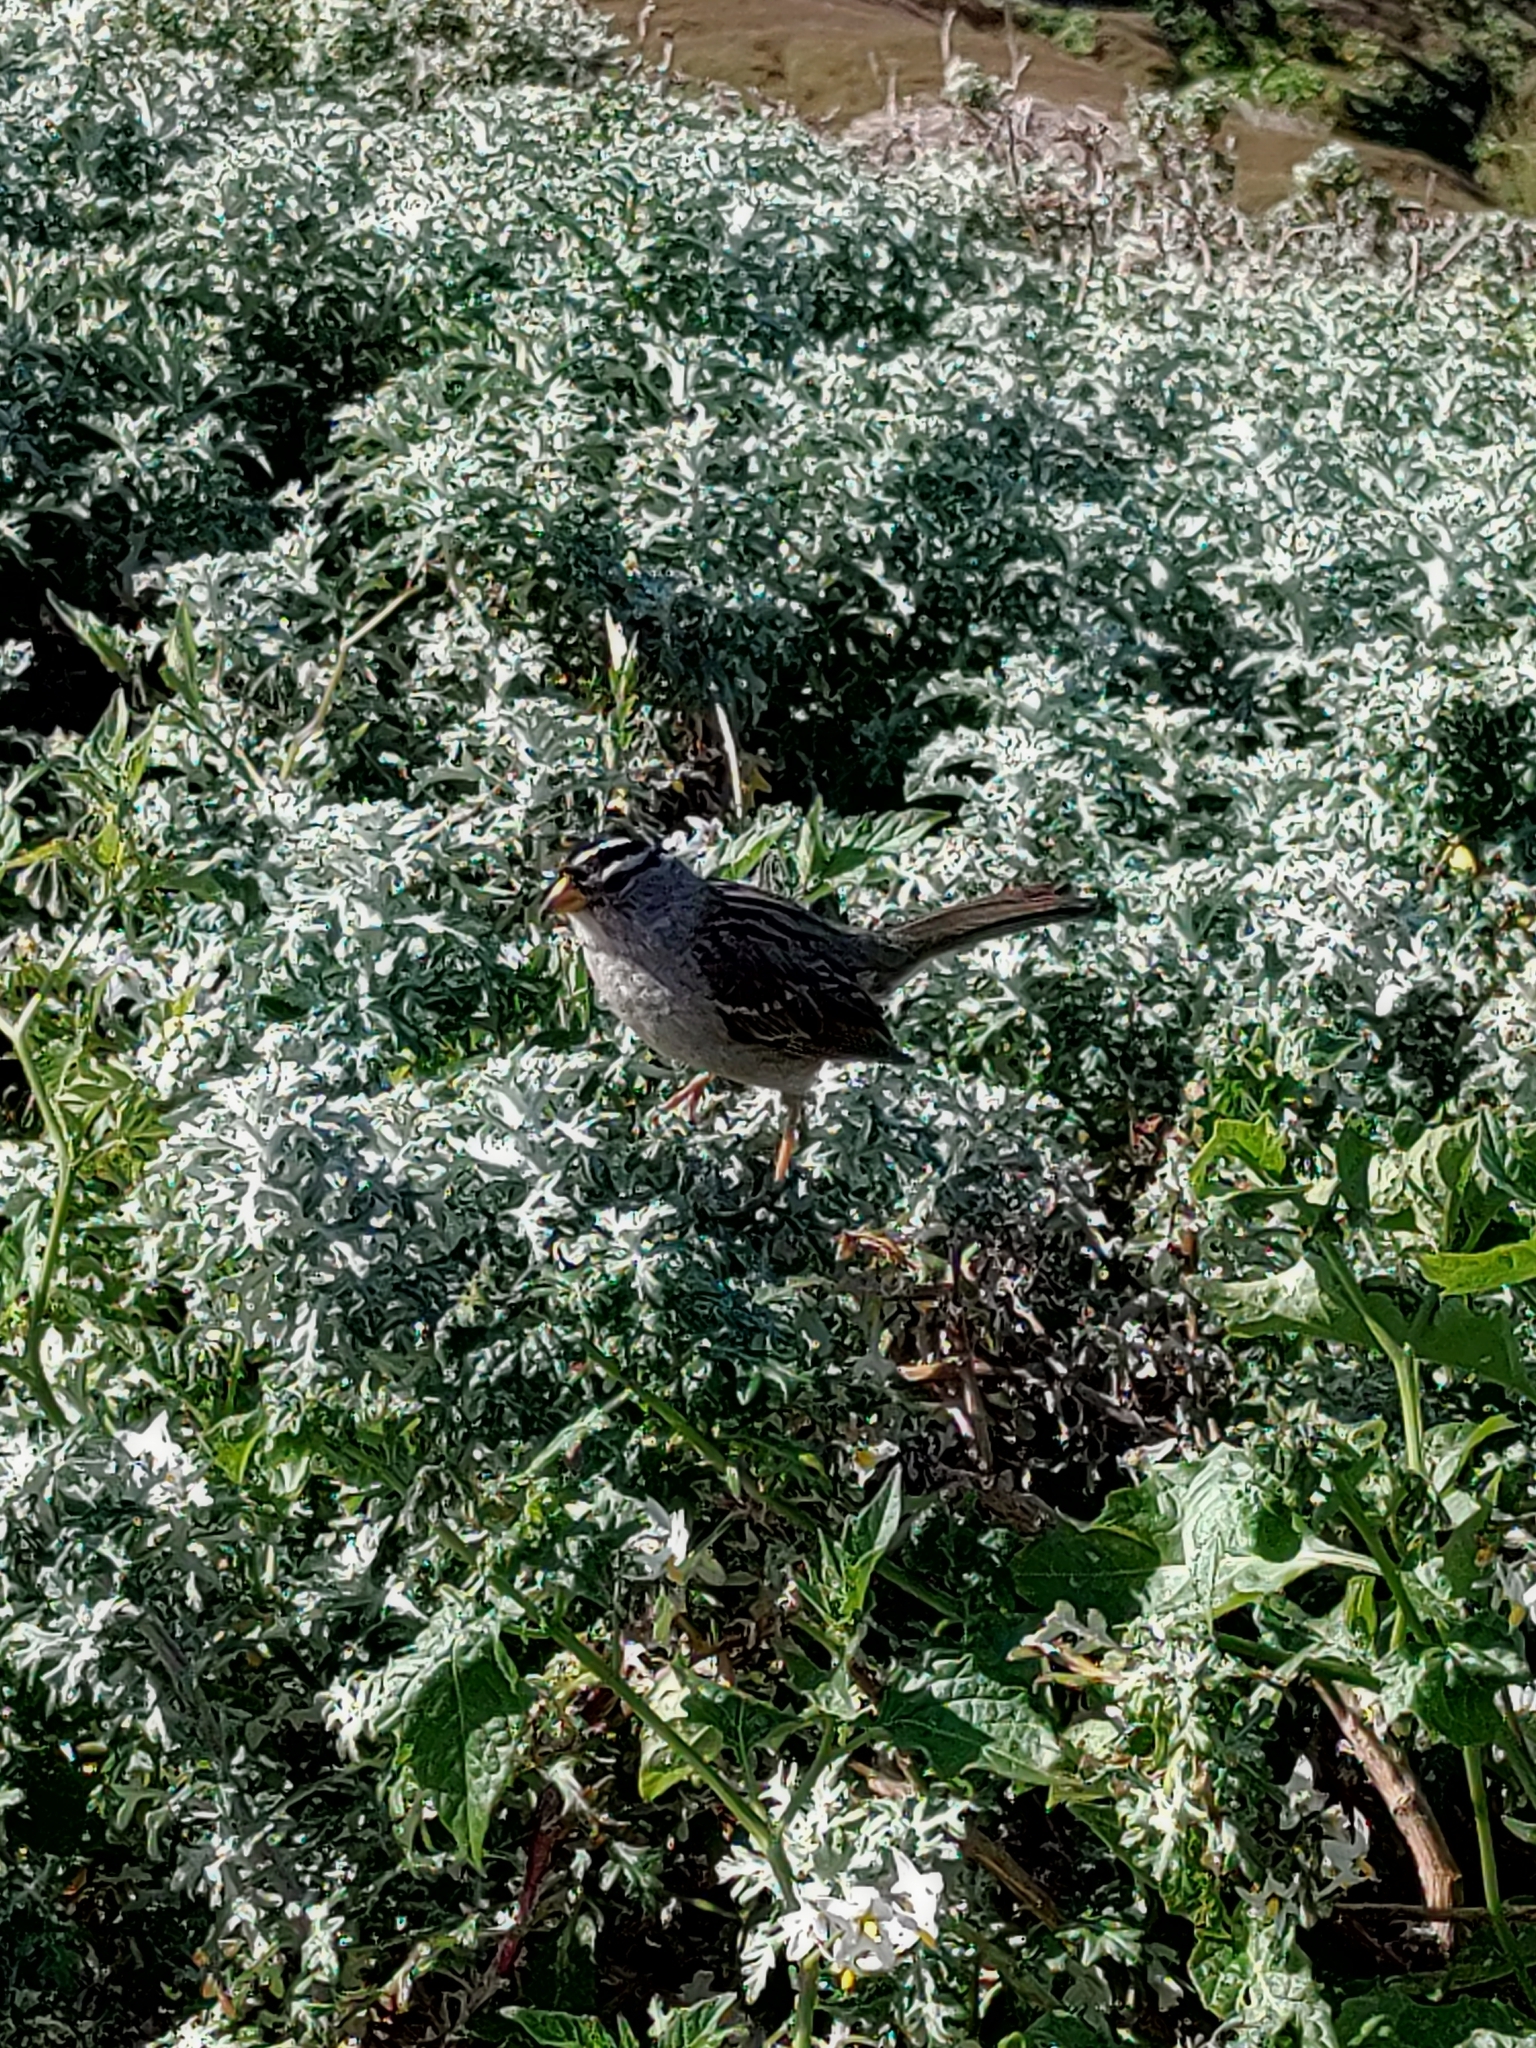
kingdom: Animalia
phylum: Chordata
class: Aves
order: Passeriformes
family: Passerellidae
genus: Zonotrichia
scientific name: Zonotrichia leucophrys
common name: White-crowned sparrow
